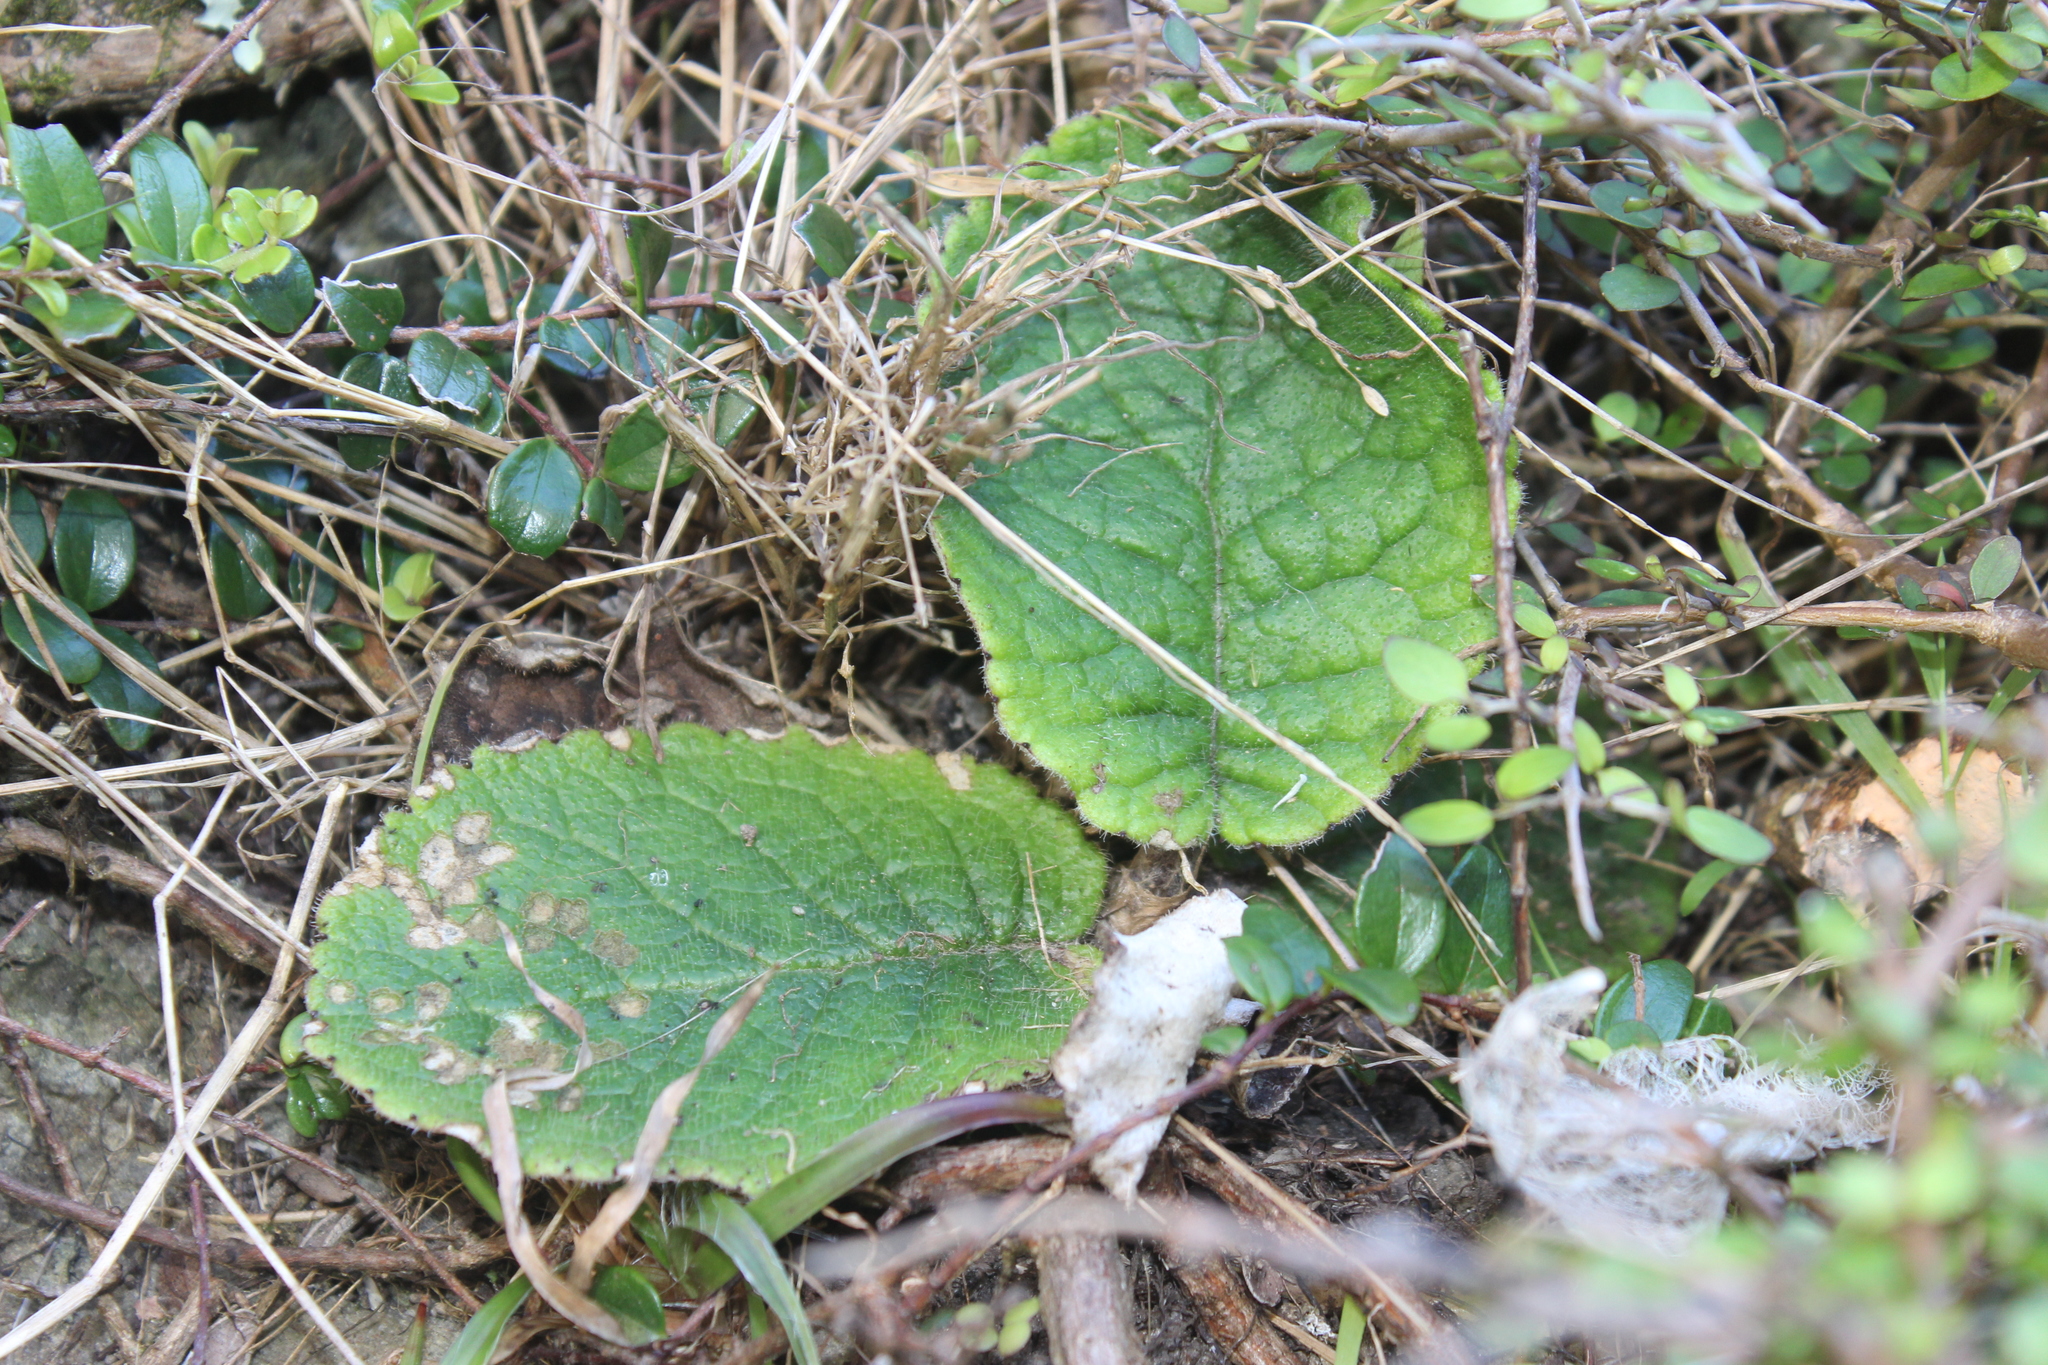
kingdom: Plantae
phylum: Tracheophyta
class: Magnoliopsida
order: Asterales
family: Asteraceae
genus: Brachyglottis
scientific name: Brachyglottis lagopus
